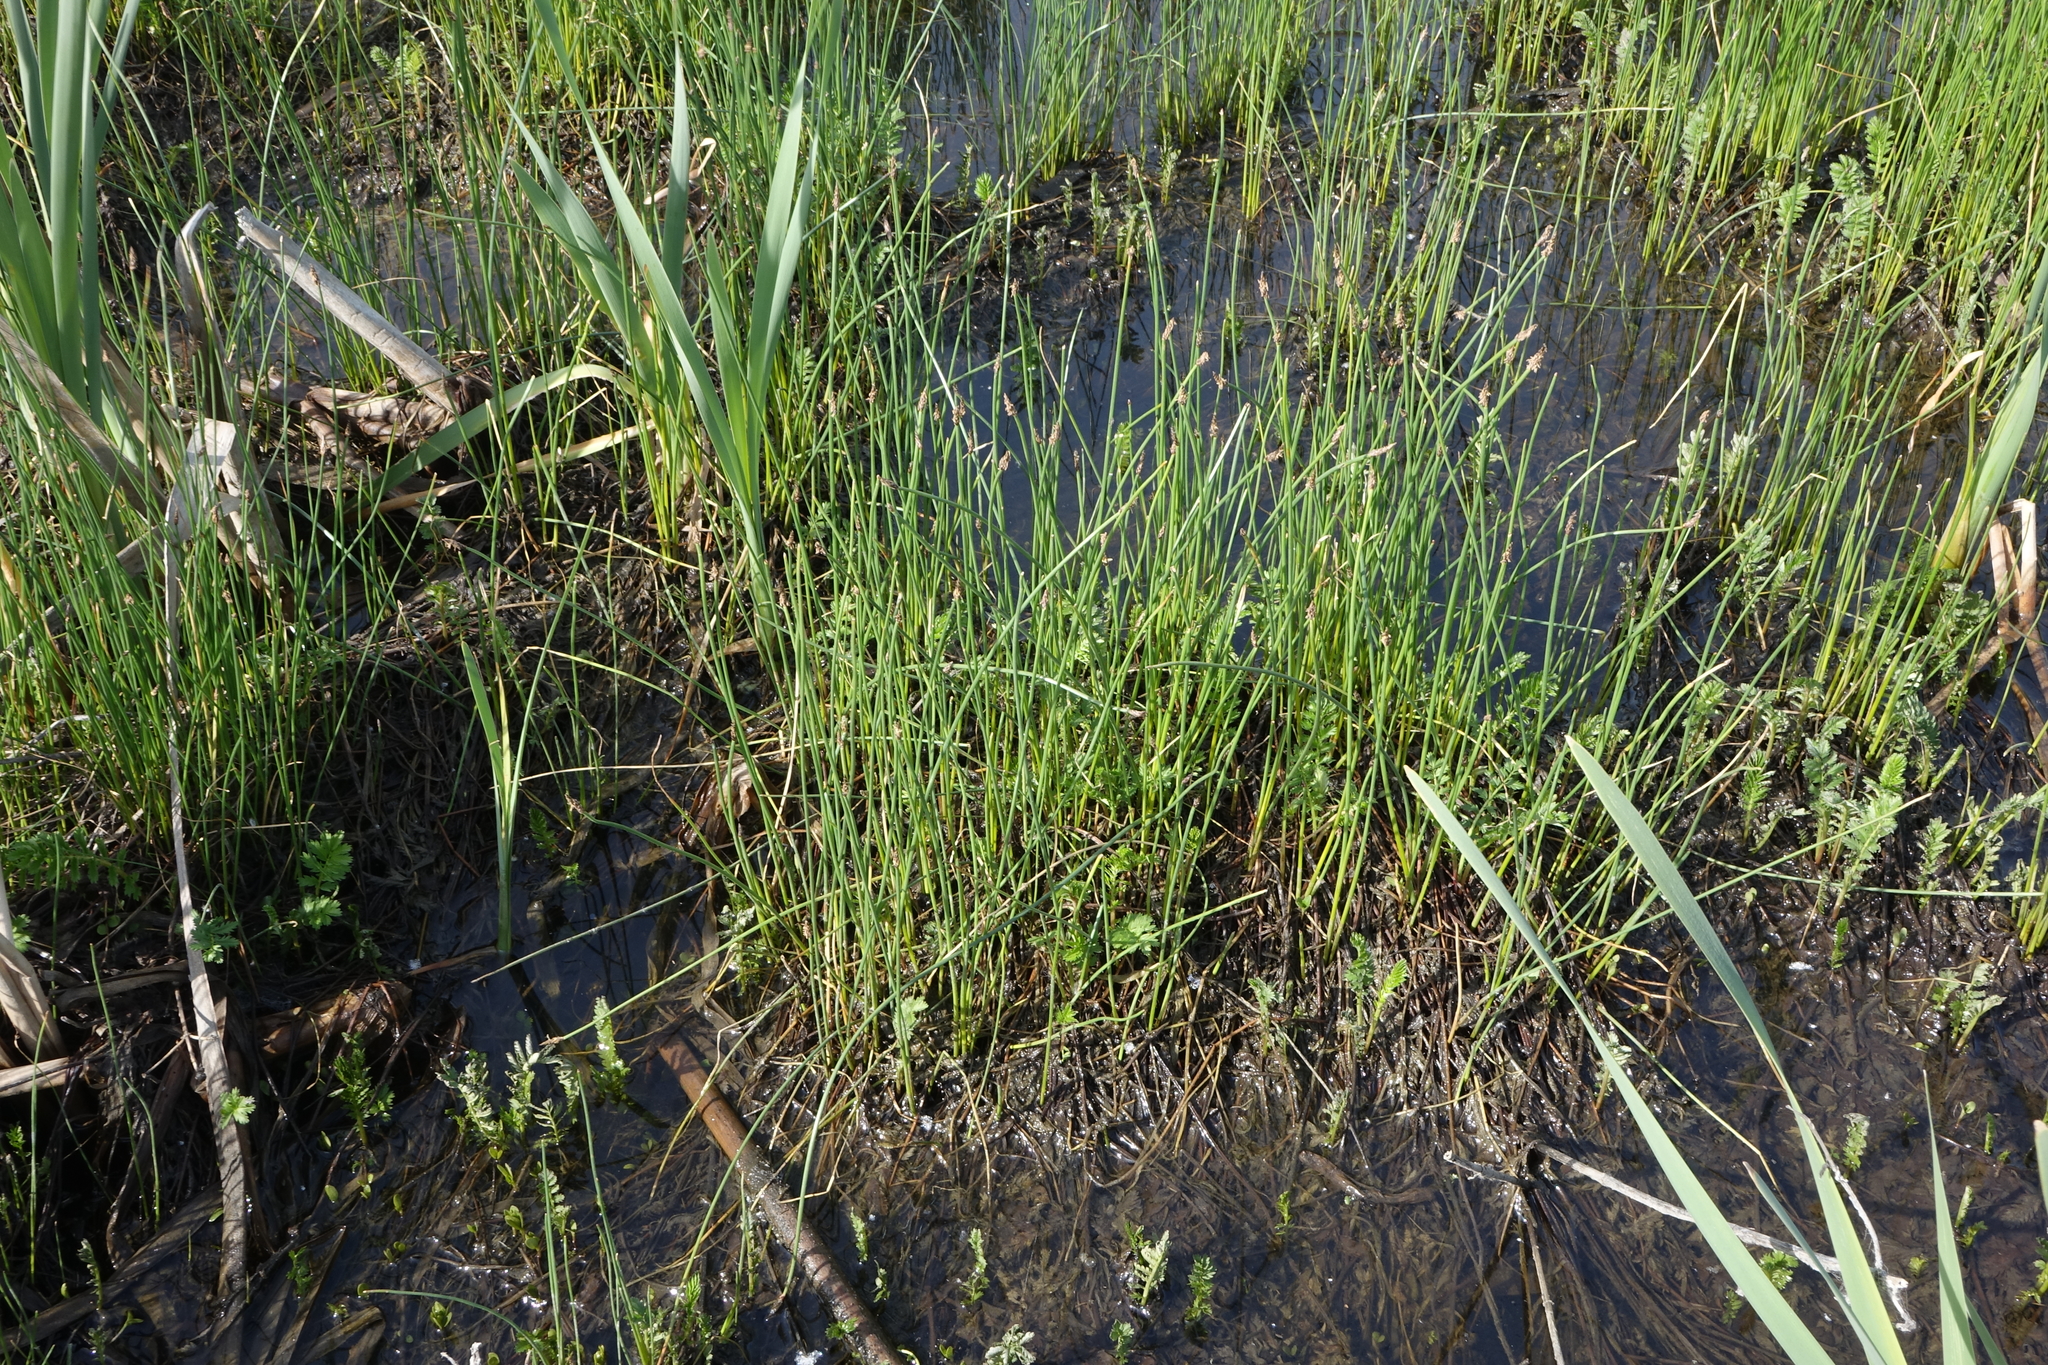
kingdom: Plantae
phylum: Tracheophyta
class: Liliopsida
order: Poales
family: Cyperaceae
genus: Eleocharis
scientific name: Eleocharis palustris
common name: Common spike-rush
